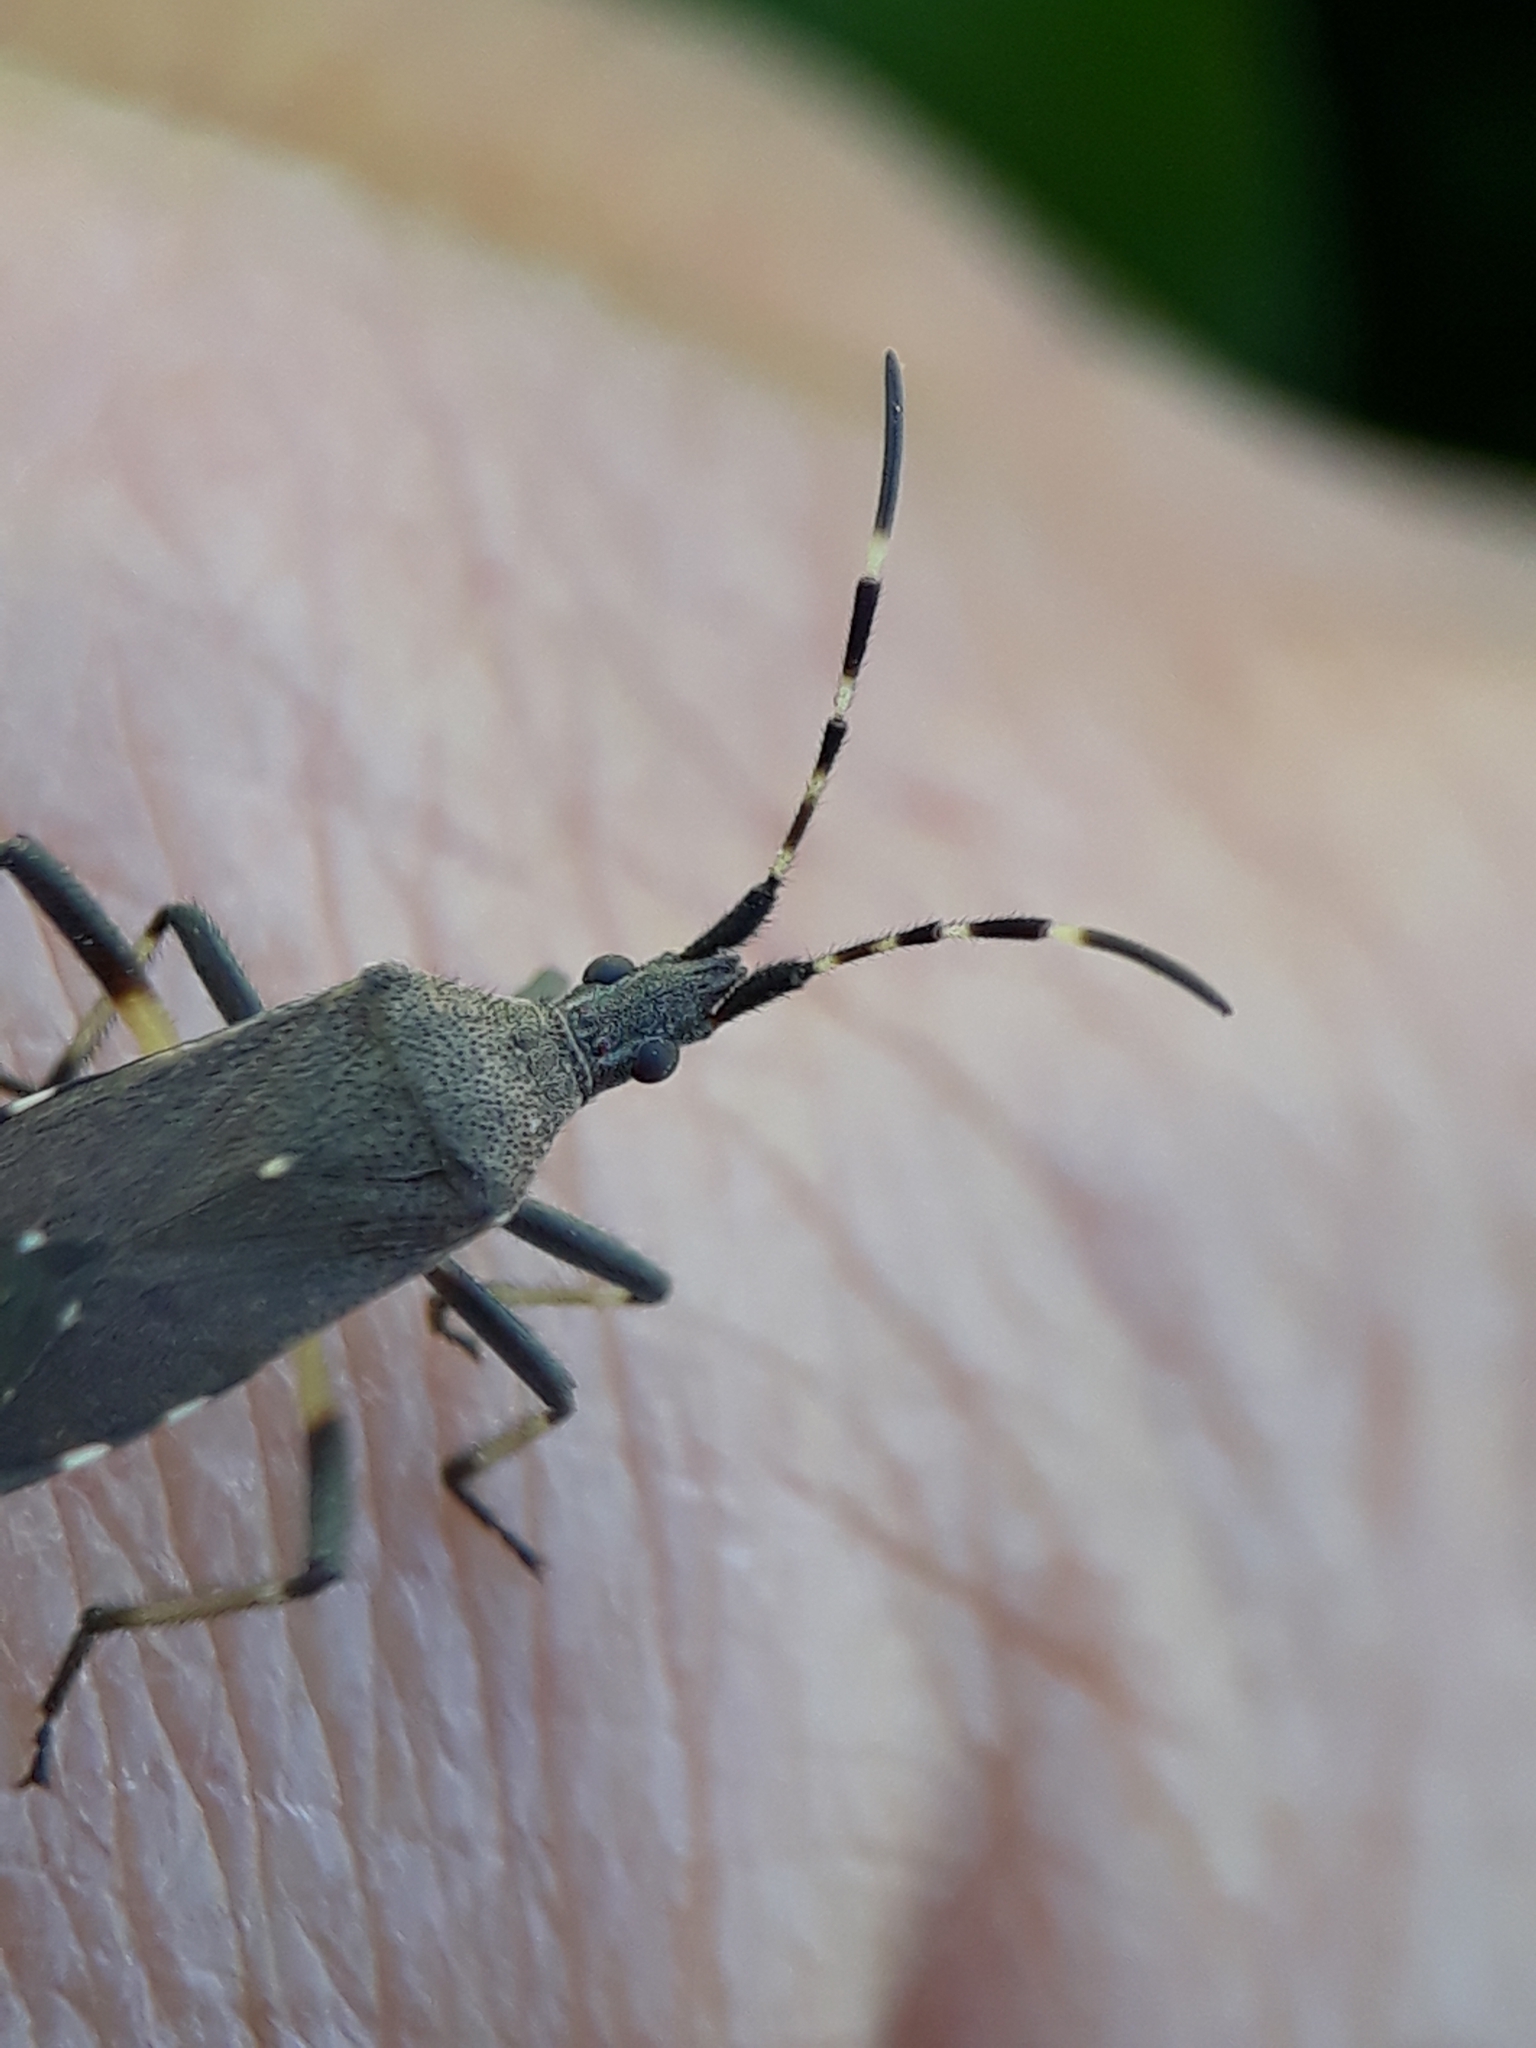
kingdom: Animalia
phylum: Arthropoda
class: Insecta
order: Hemiptera
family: Stenocephalidae
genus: Dicranocephalus
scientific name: Dicranocephalus agilis
